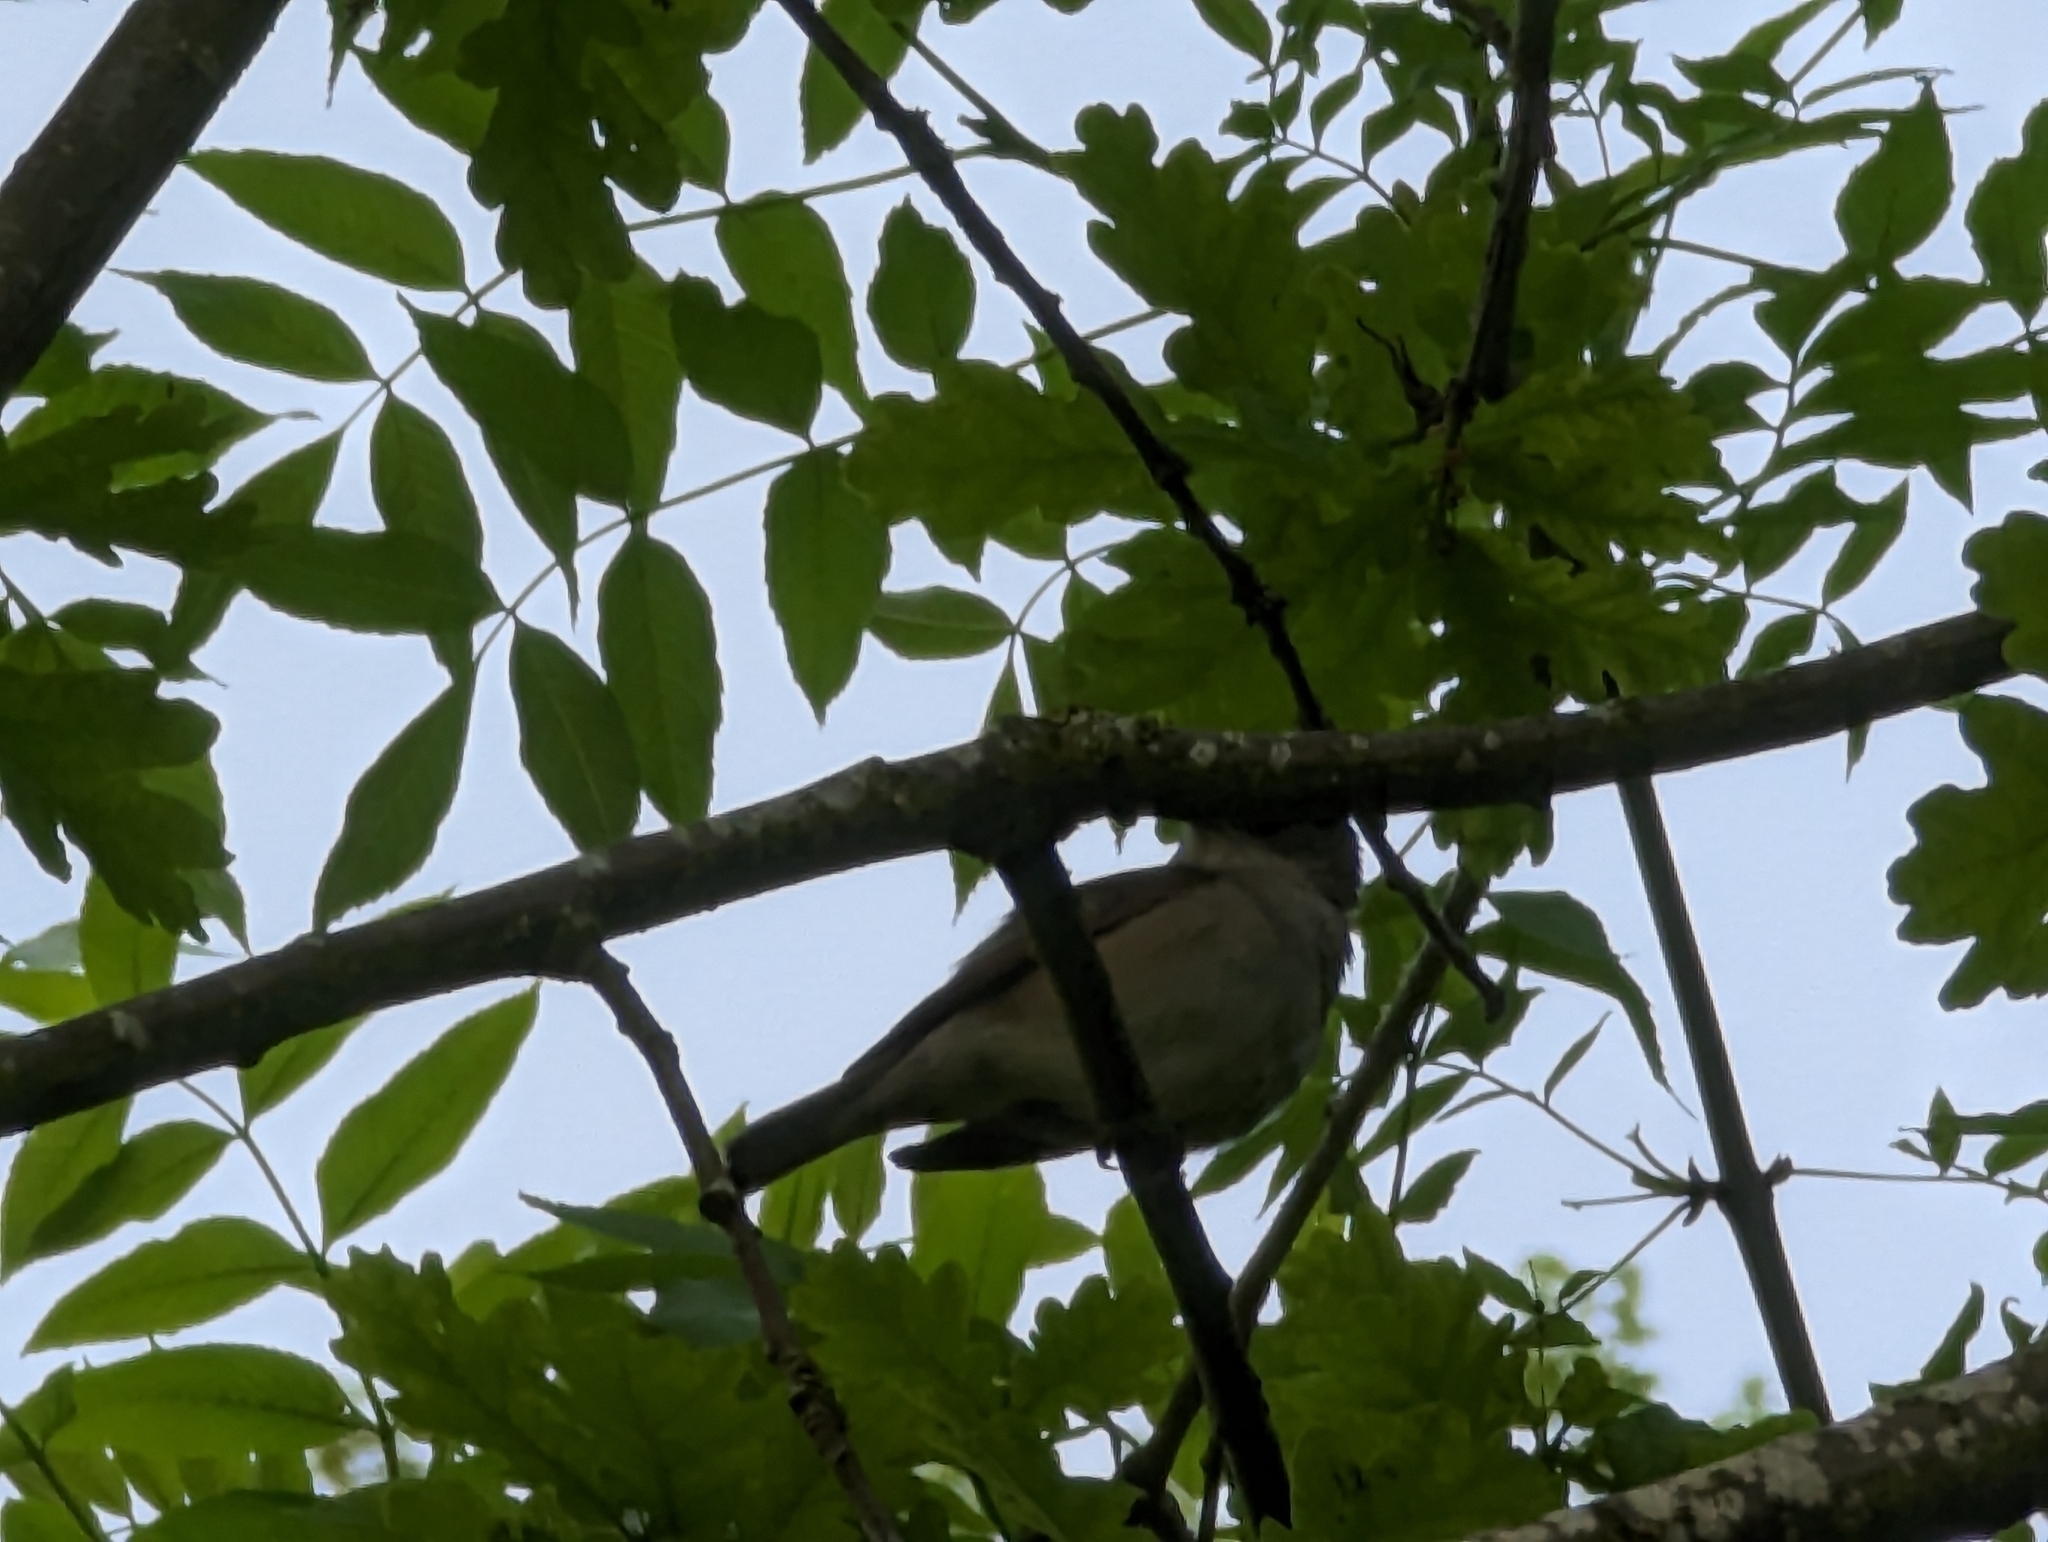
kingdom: Animalia
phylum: Chordata
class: Aves
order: Passeriformes
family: Sylviidae
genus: Sylvia
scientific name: Sylvia atricapilla
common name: Eurasian blackcap
